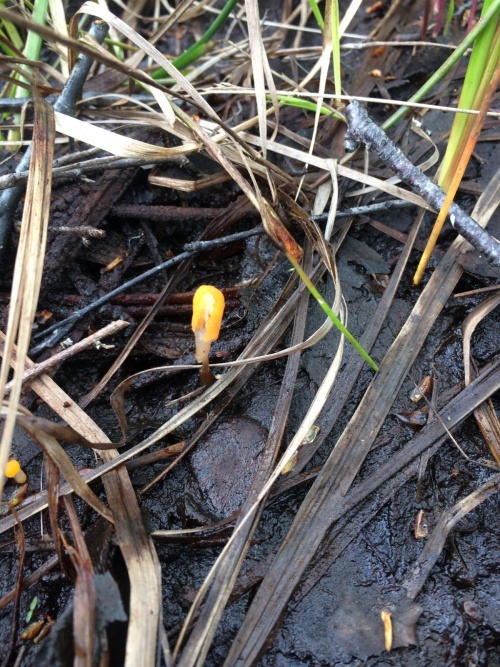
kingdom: Fungi
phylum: Ascomycota
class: Leotiomycetes
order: Helotiales
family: Cenangiaceae
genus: Mitrula
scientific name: Mitrula paludosa
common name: Bog beacon
